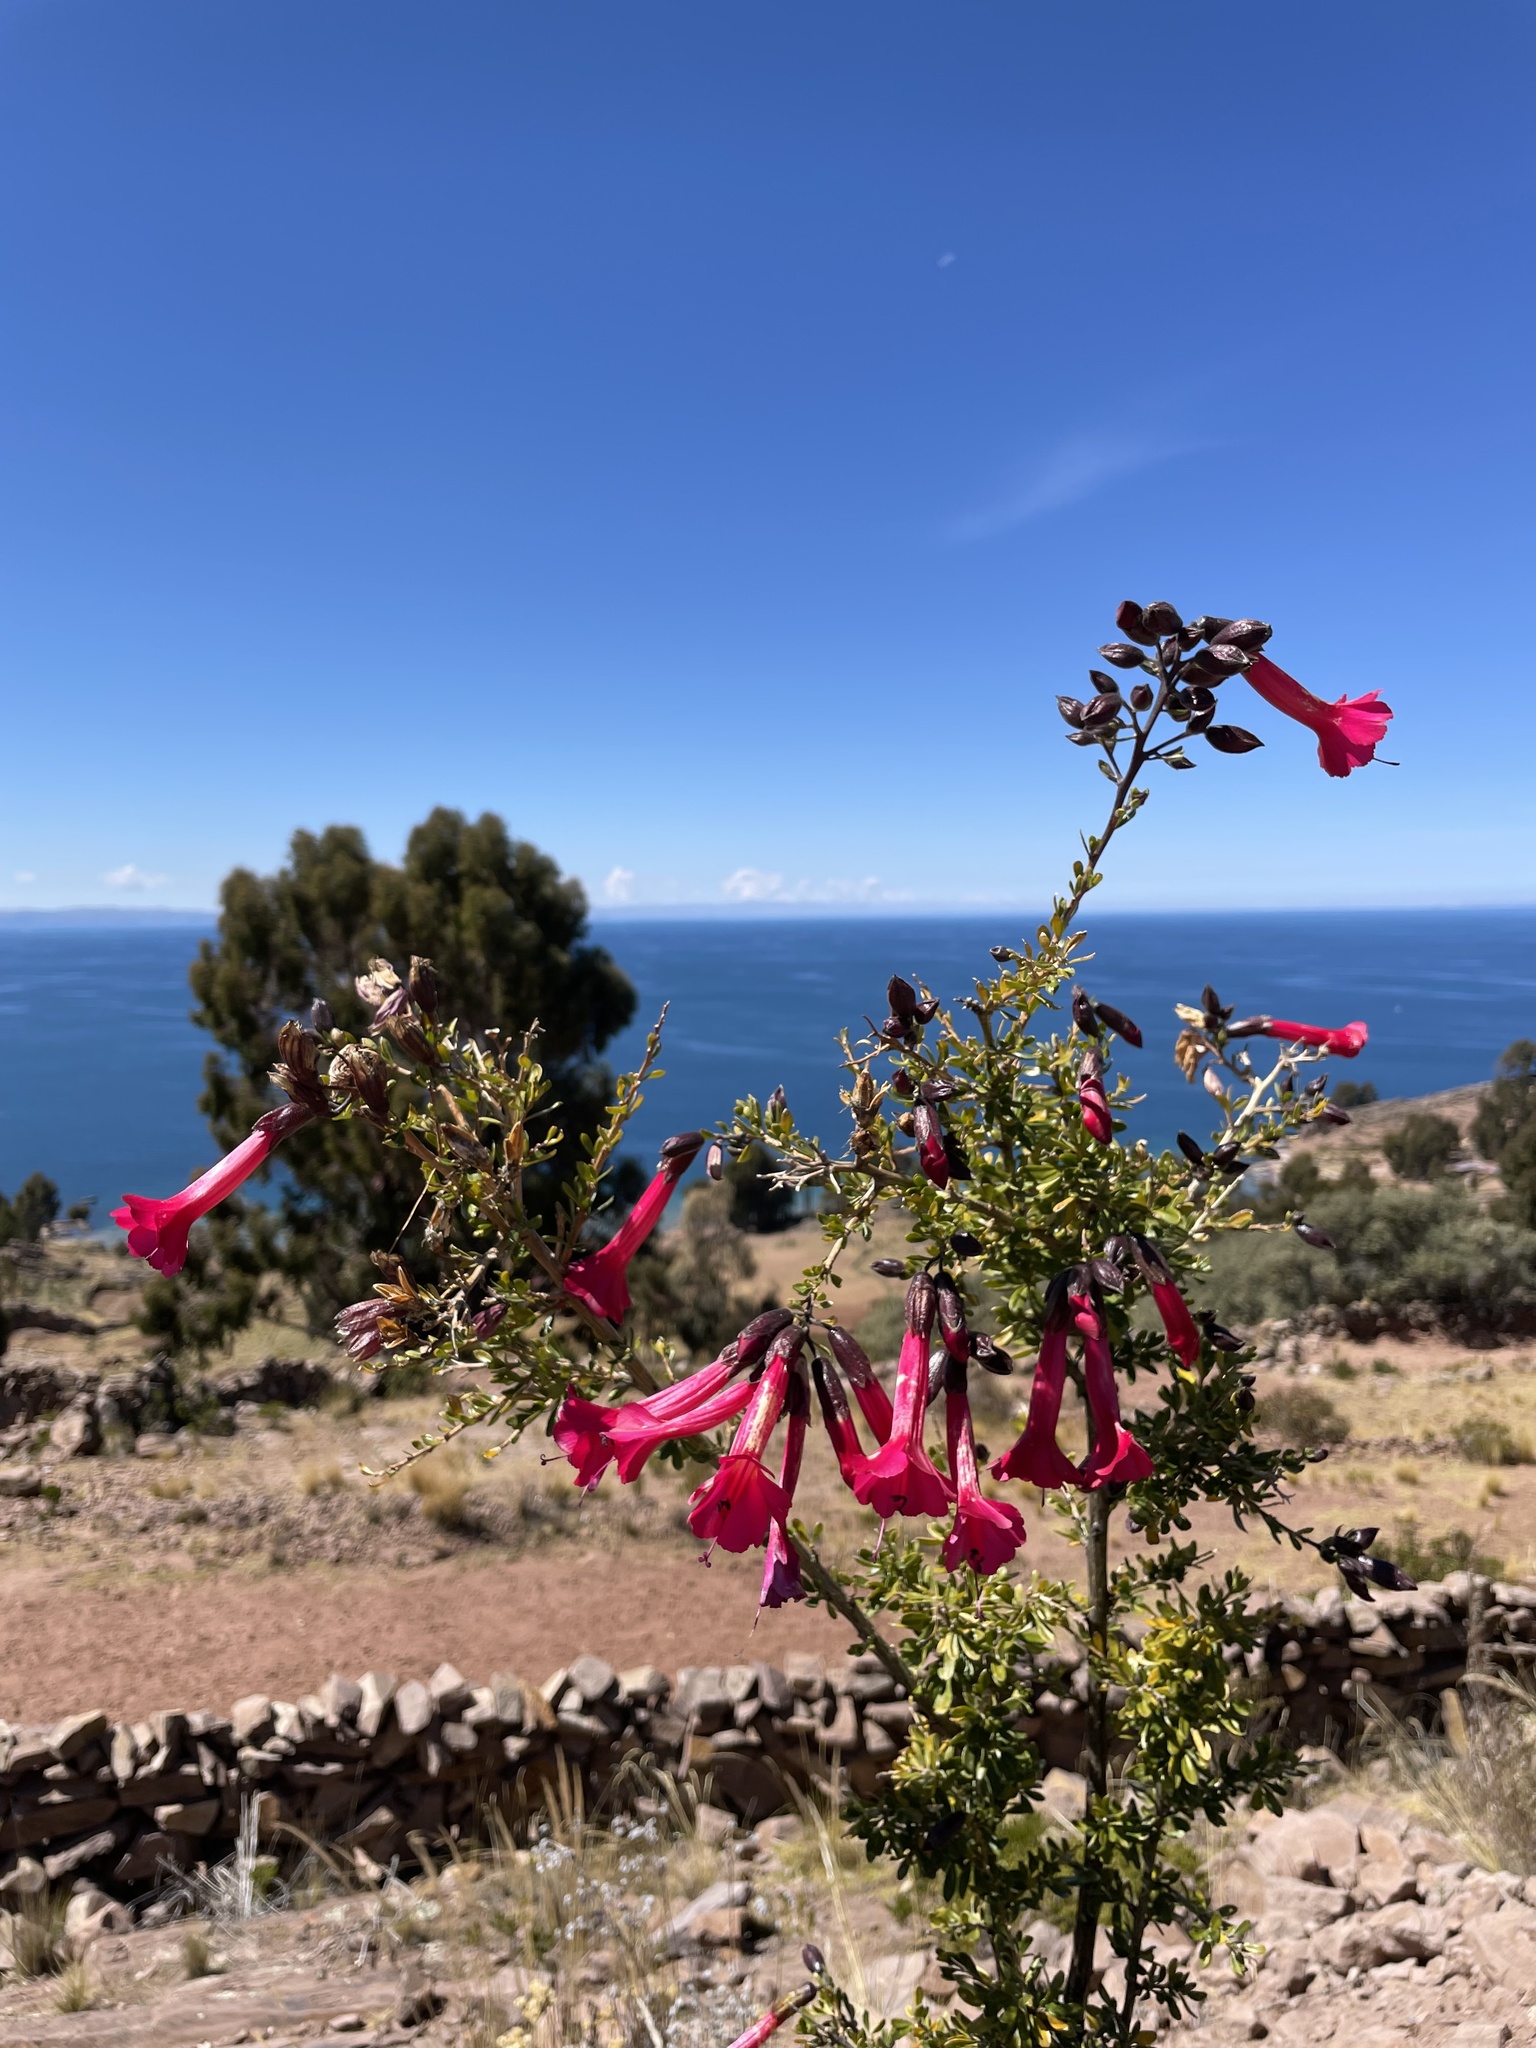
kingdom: Plantae
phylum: Tracheophyta
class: Magnoliopsida
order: Ericales
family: Polemoniaceae
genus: Cantua
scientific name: Cantua buxifolia
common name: Sacred-flower-of-the-incas
